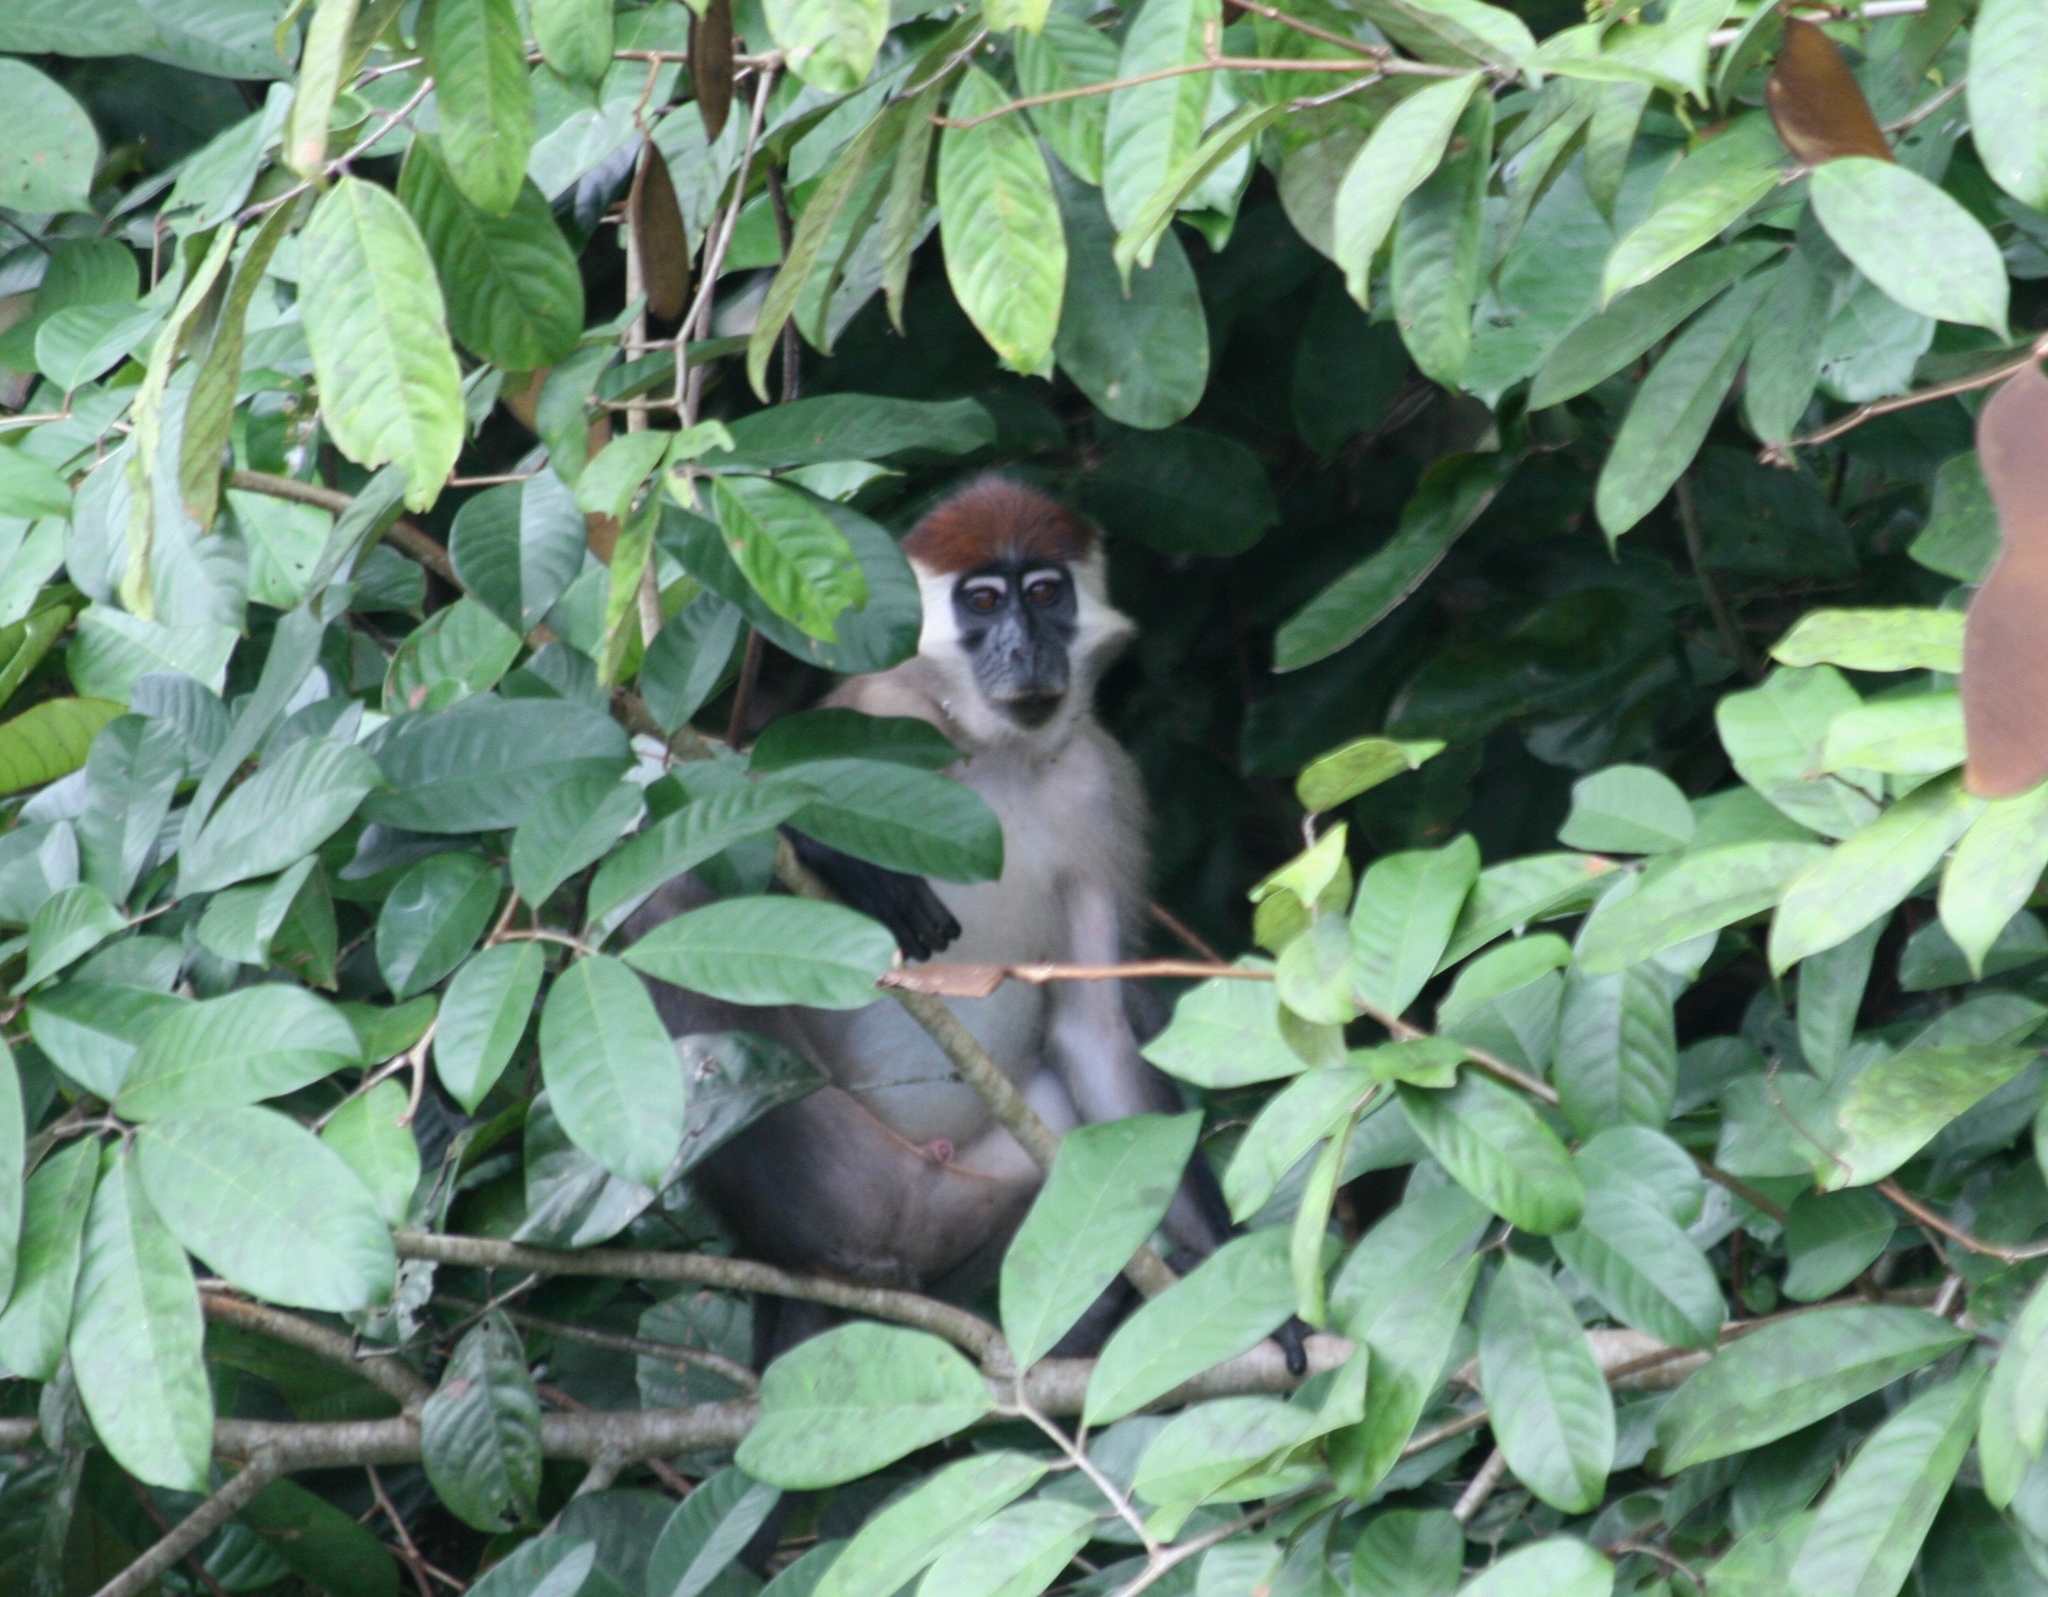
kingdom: Animalia
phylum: Chordata
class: Mammalia
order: Primates
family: Cercopithecidae
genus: Cercocebus
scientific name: Cercocebus torquatus
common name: Collared mangabey
